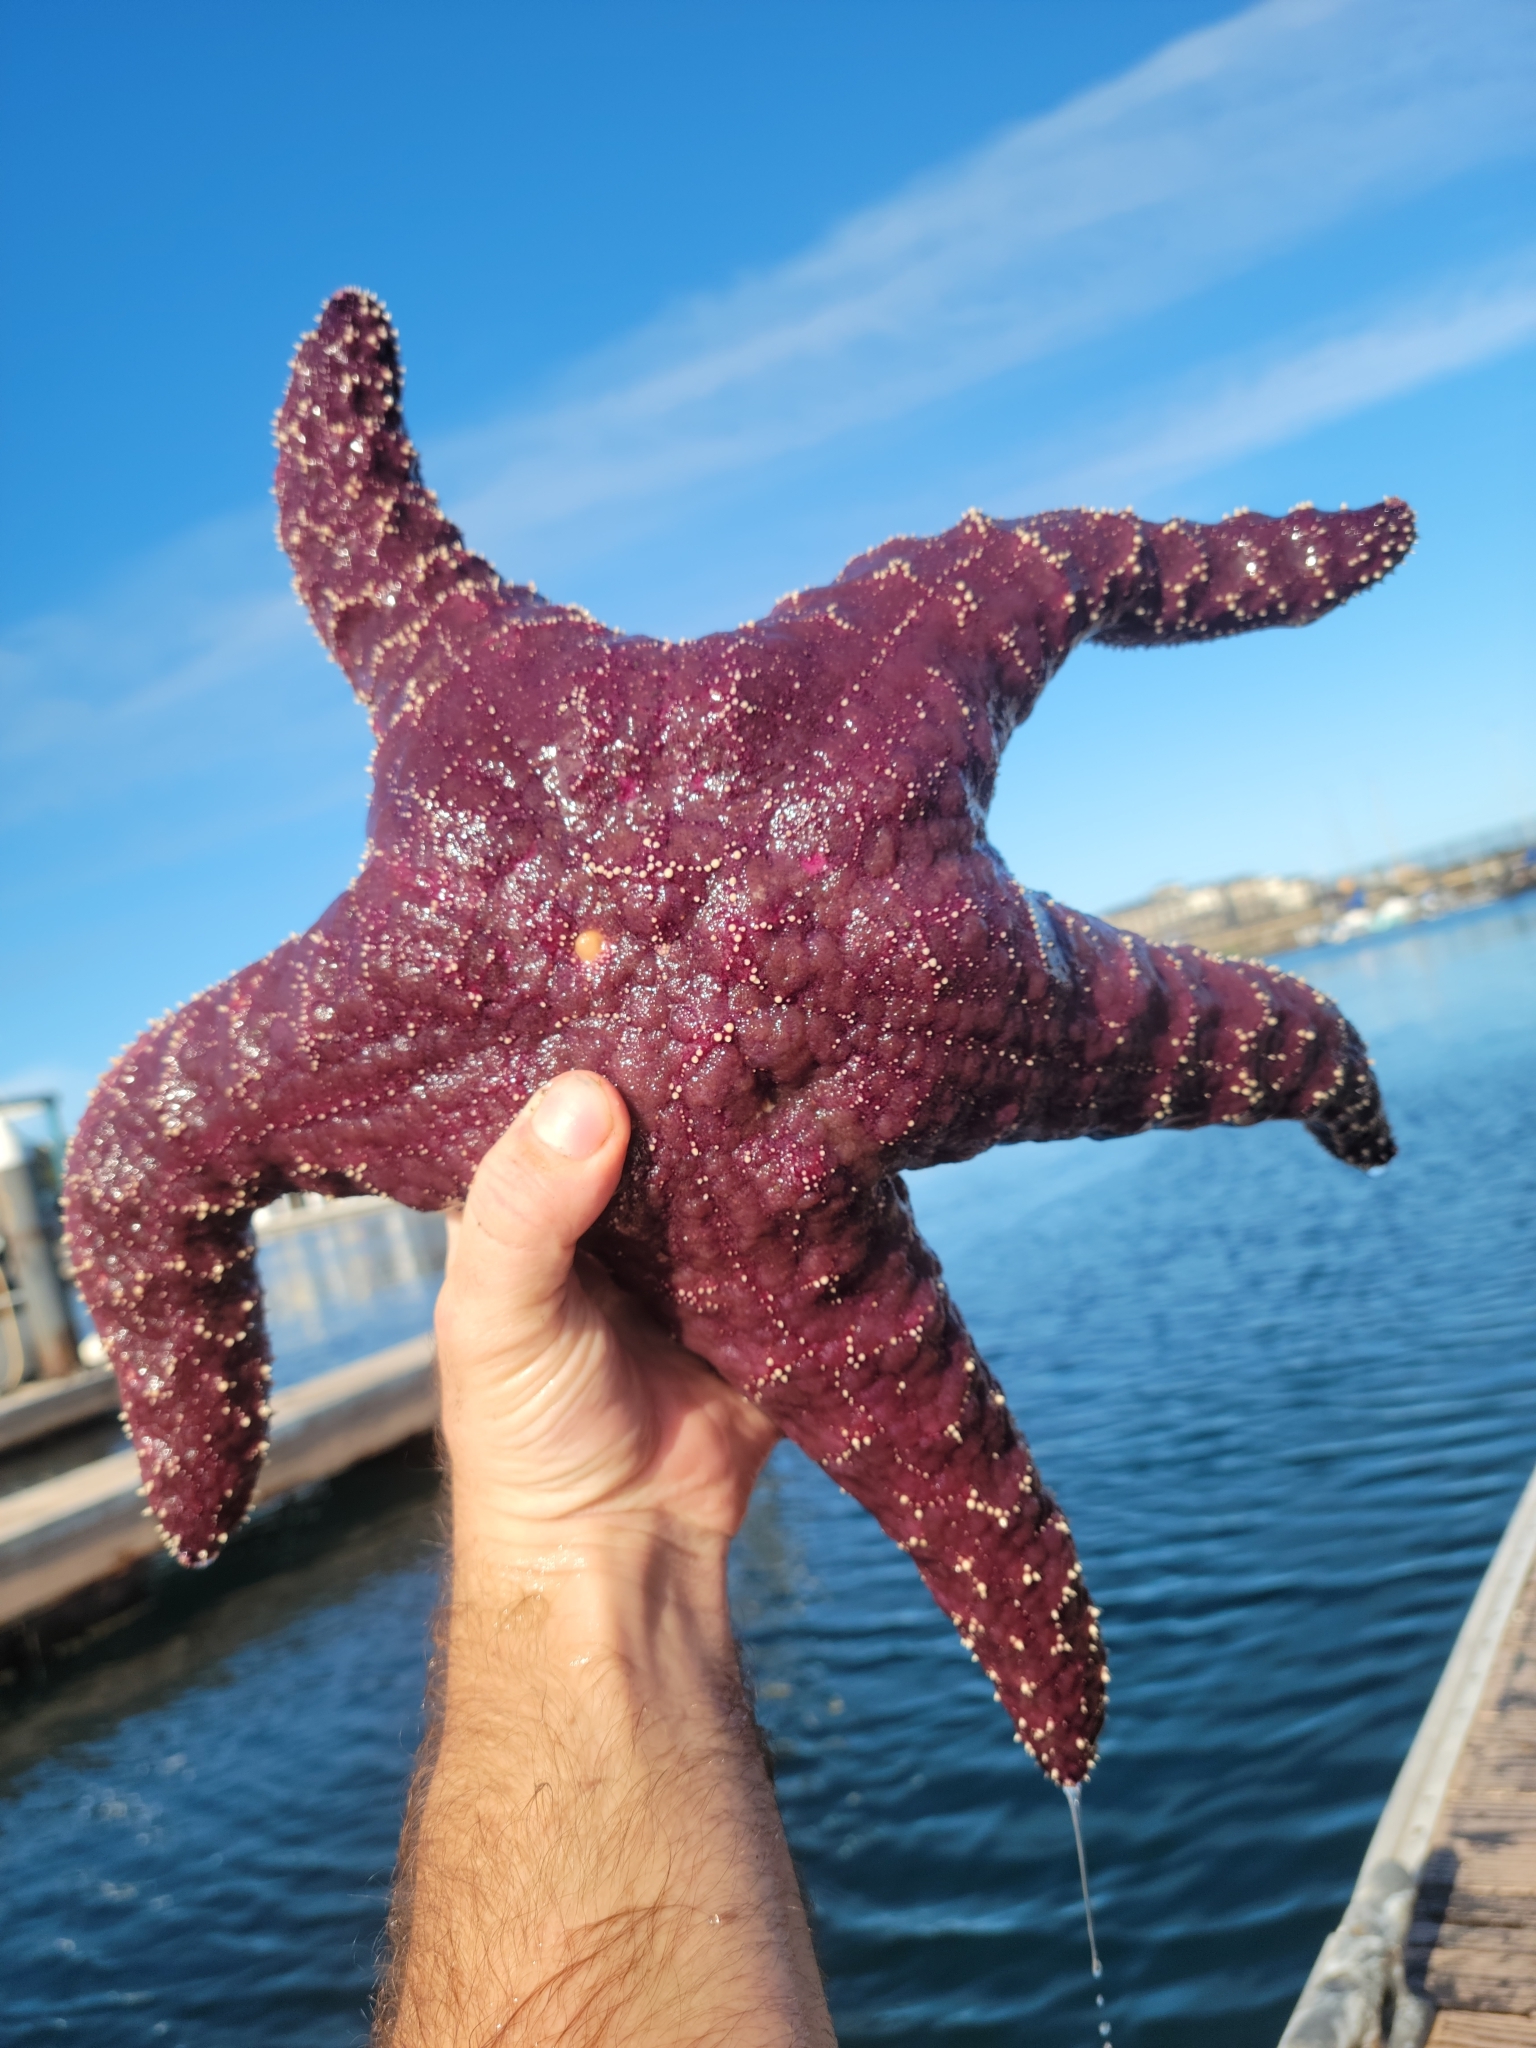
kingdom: Animalia
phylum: Echinodermata
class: Asteroidea
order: Forcipulatida
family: Asteriidae
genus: Pisaster
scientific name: Pisaster ochraceus
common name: Ochre stars
